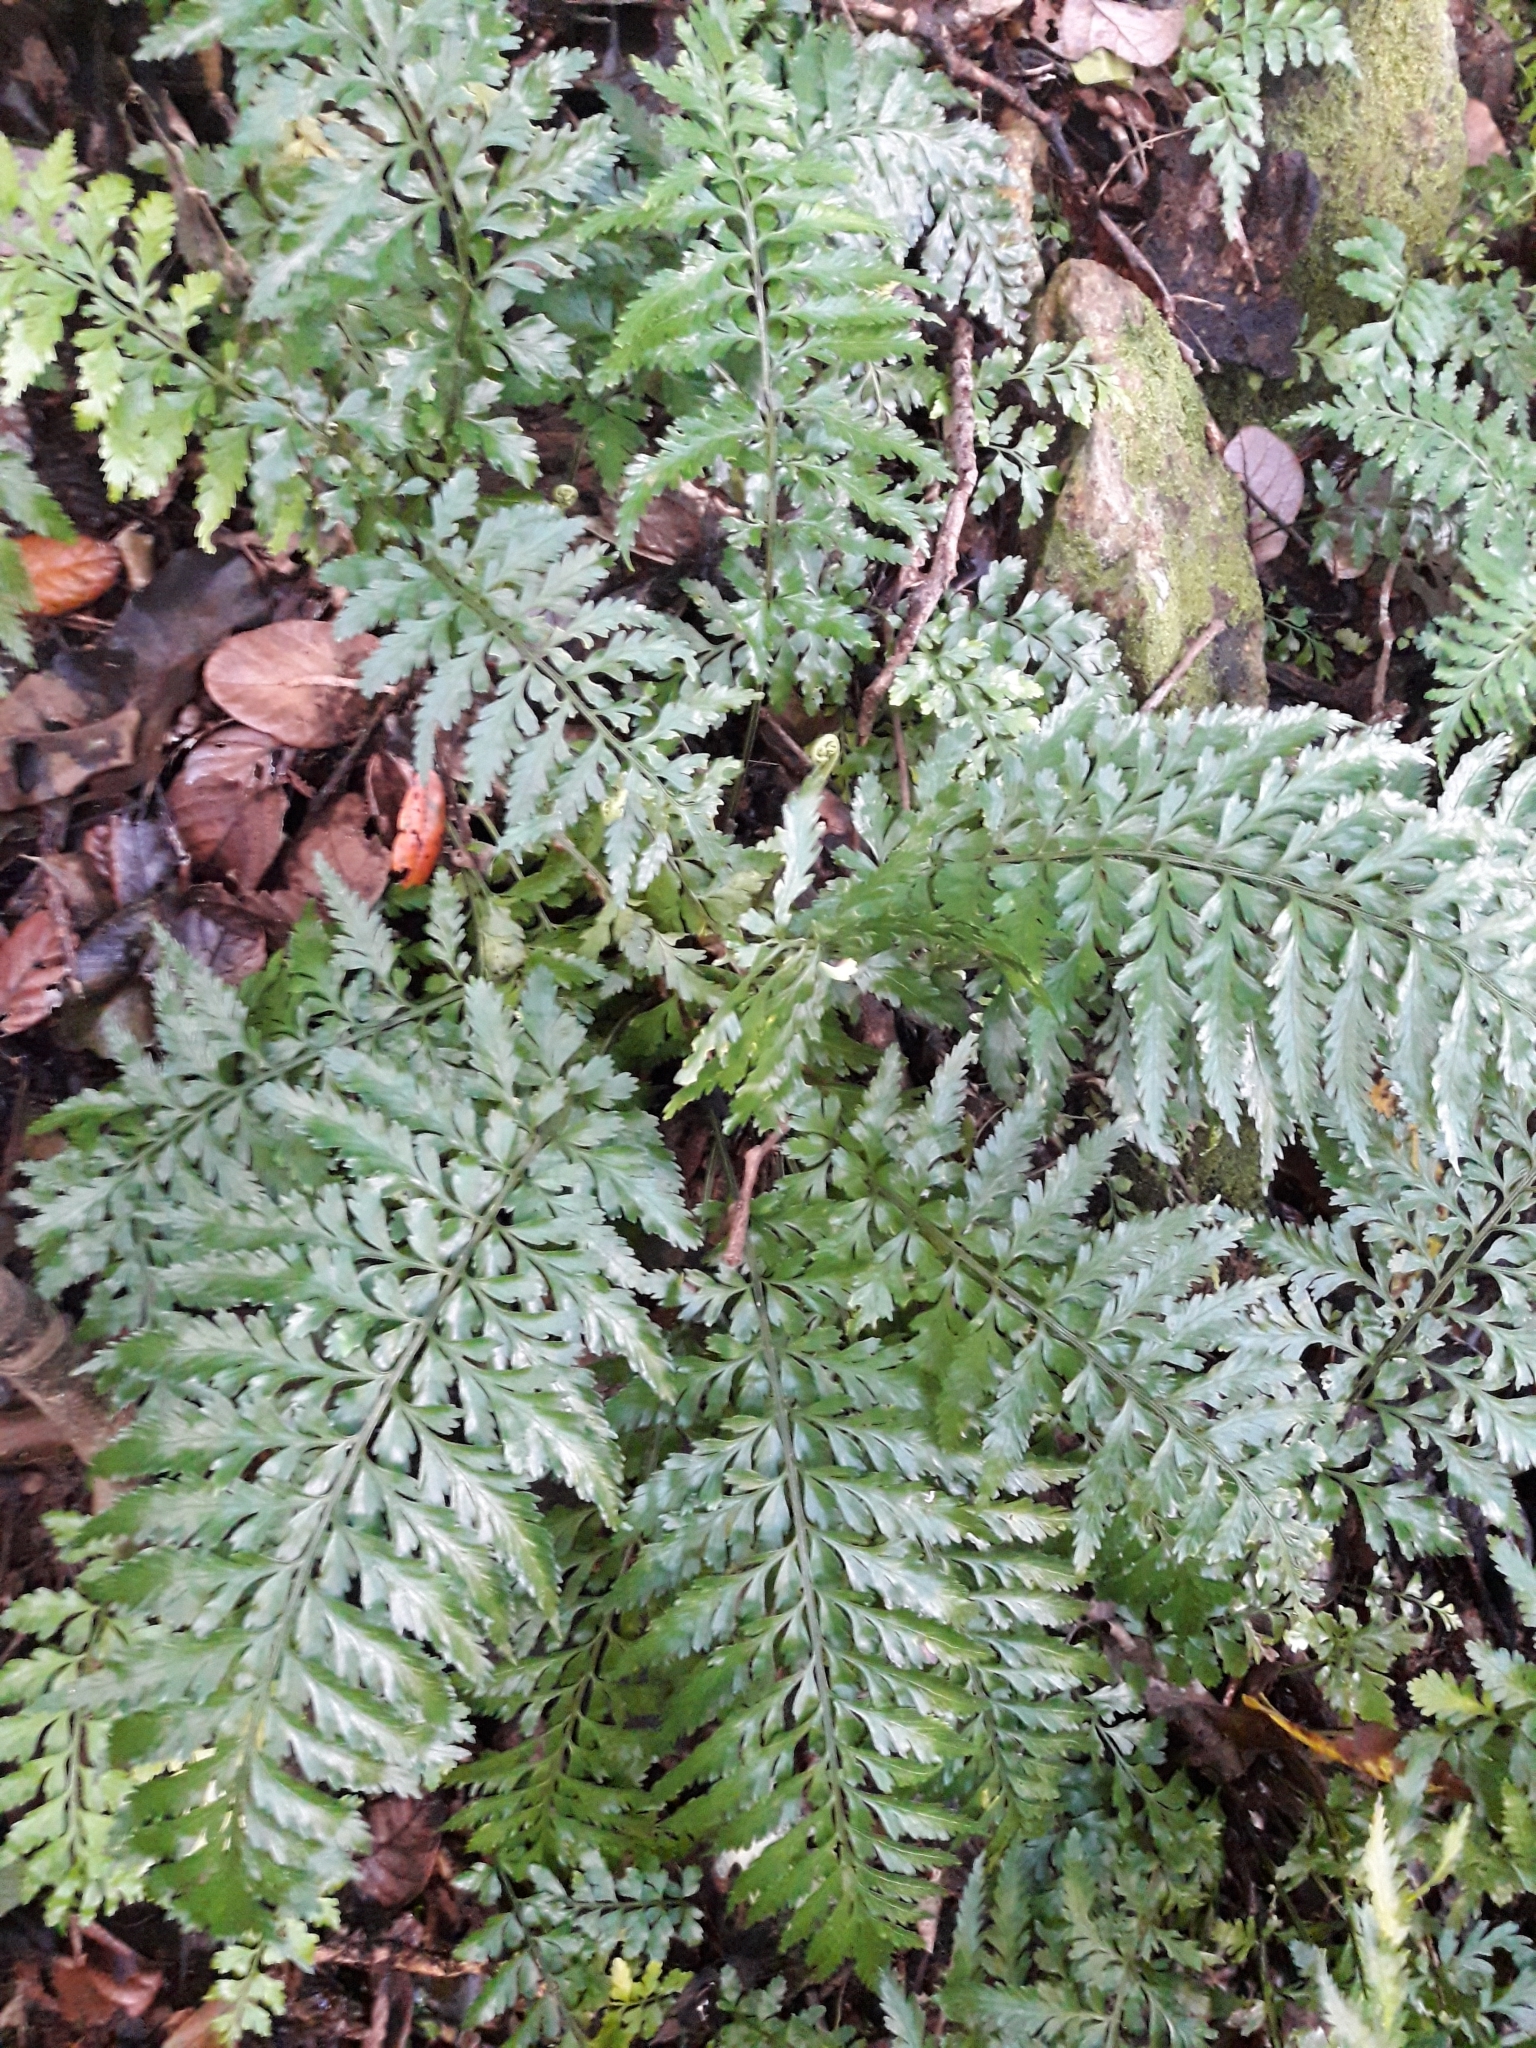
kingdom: Plantae
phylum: Tracheophyta
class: Polypodiopsida
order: Polypodiales
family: Aspleniaceae
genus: Asplenium
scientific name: Asplenium lamprophyllum
